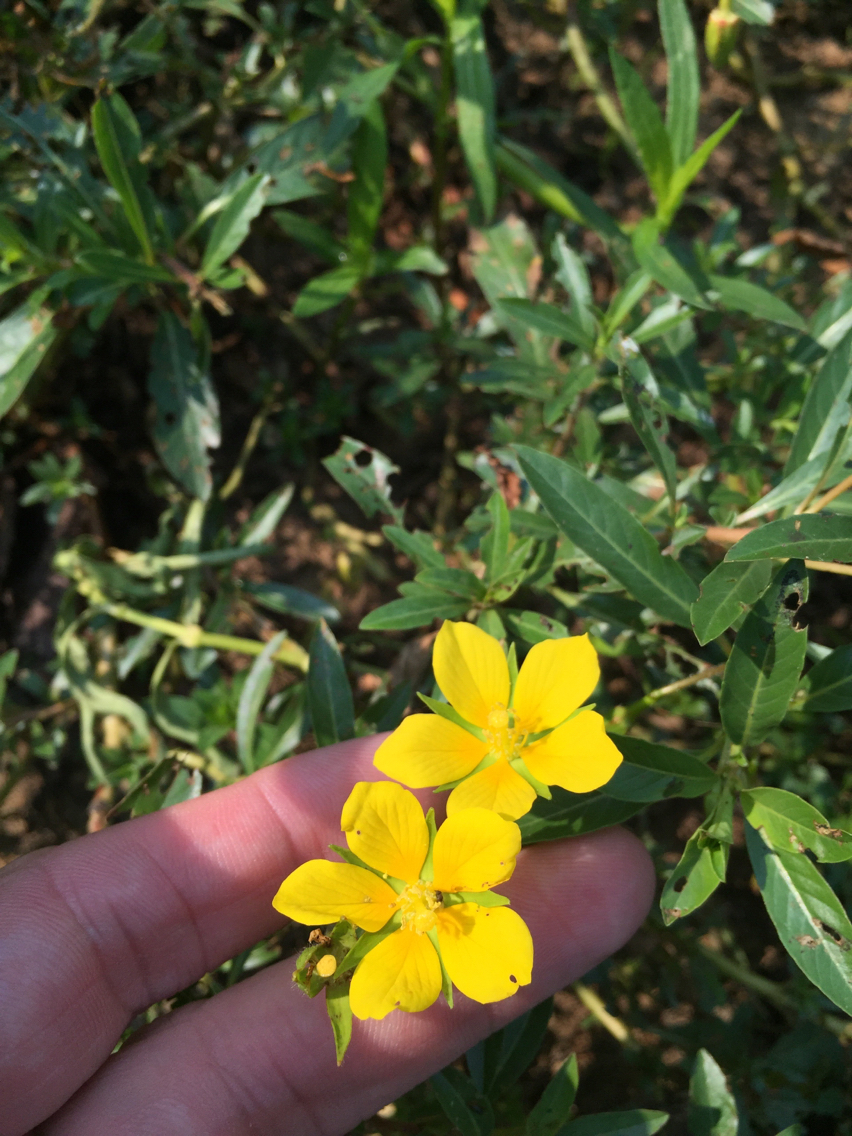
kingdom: Plantae
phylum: Tracheophyta
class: Magnoliopsida
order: Myrtales
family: Onagraceae
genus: Ludwigia
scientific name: Ludwigia peploides
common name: Floating primrose-willow
